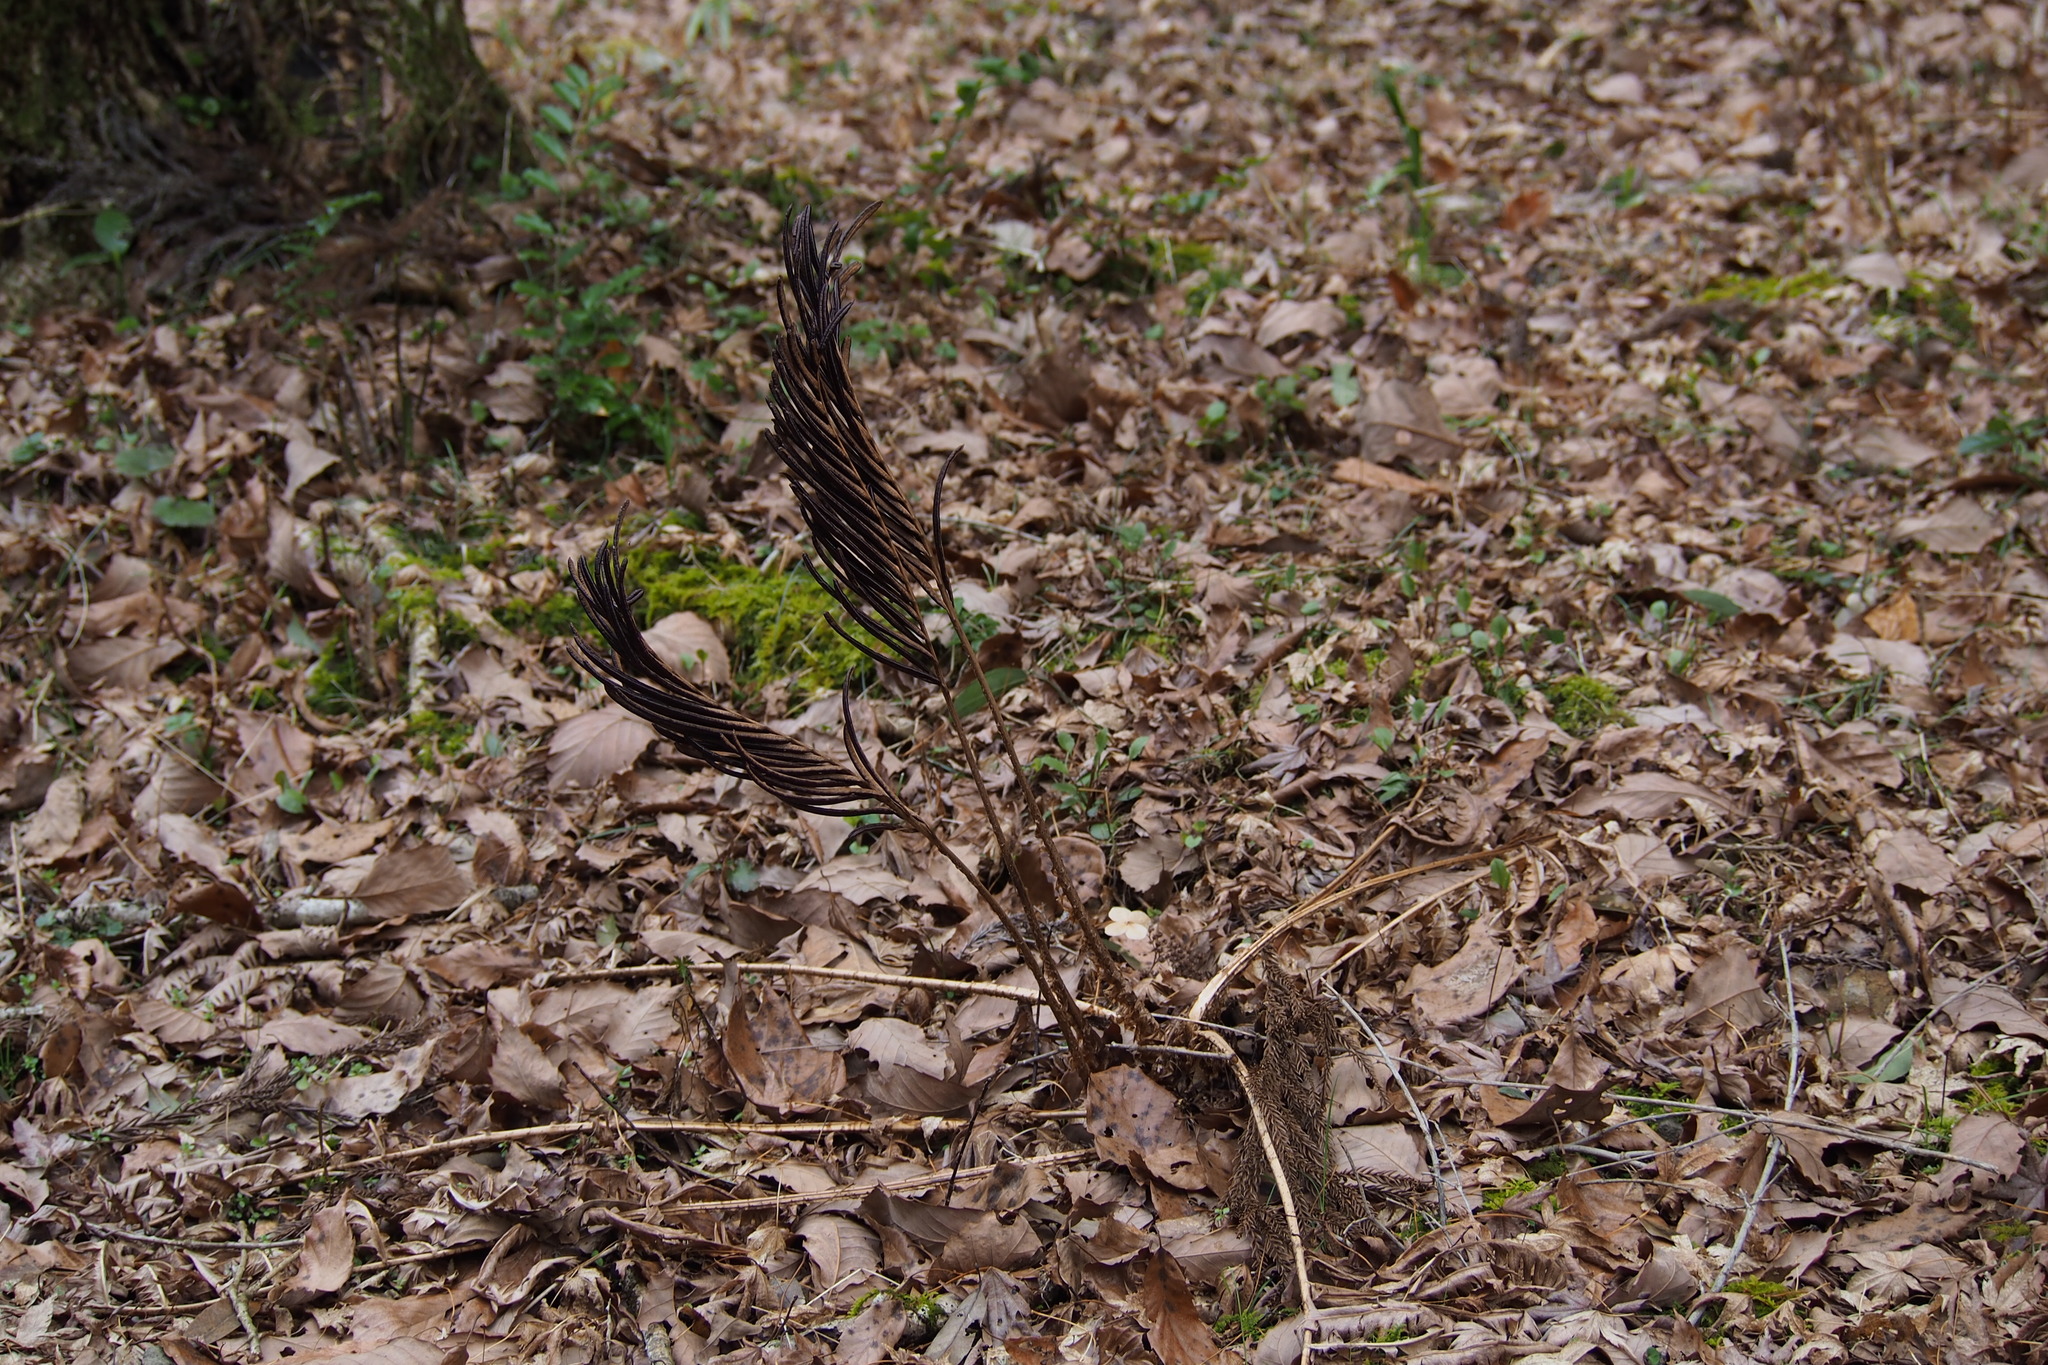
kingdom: Plantae
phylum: Tracheophyta
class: Polypodiopsida
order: Polypodiales
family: Onocleaceae
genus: Matteuccia
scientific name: Matteuccia struthiopteris
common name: Ostrich fern
